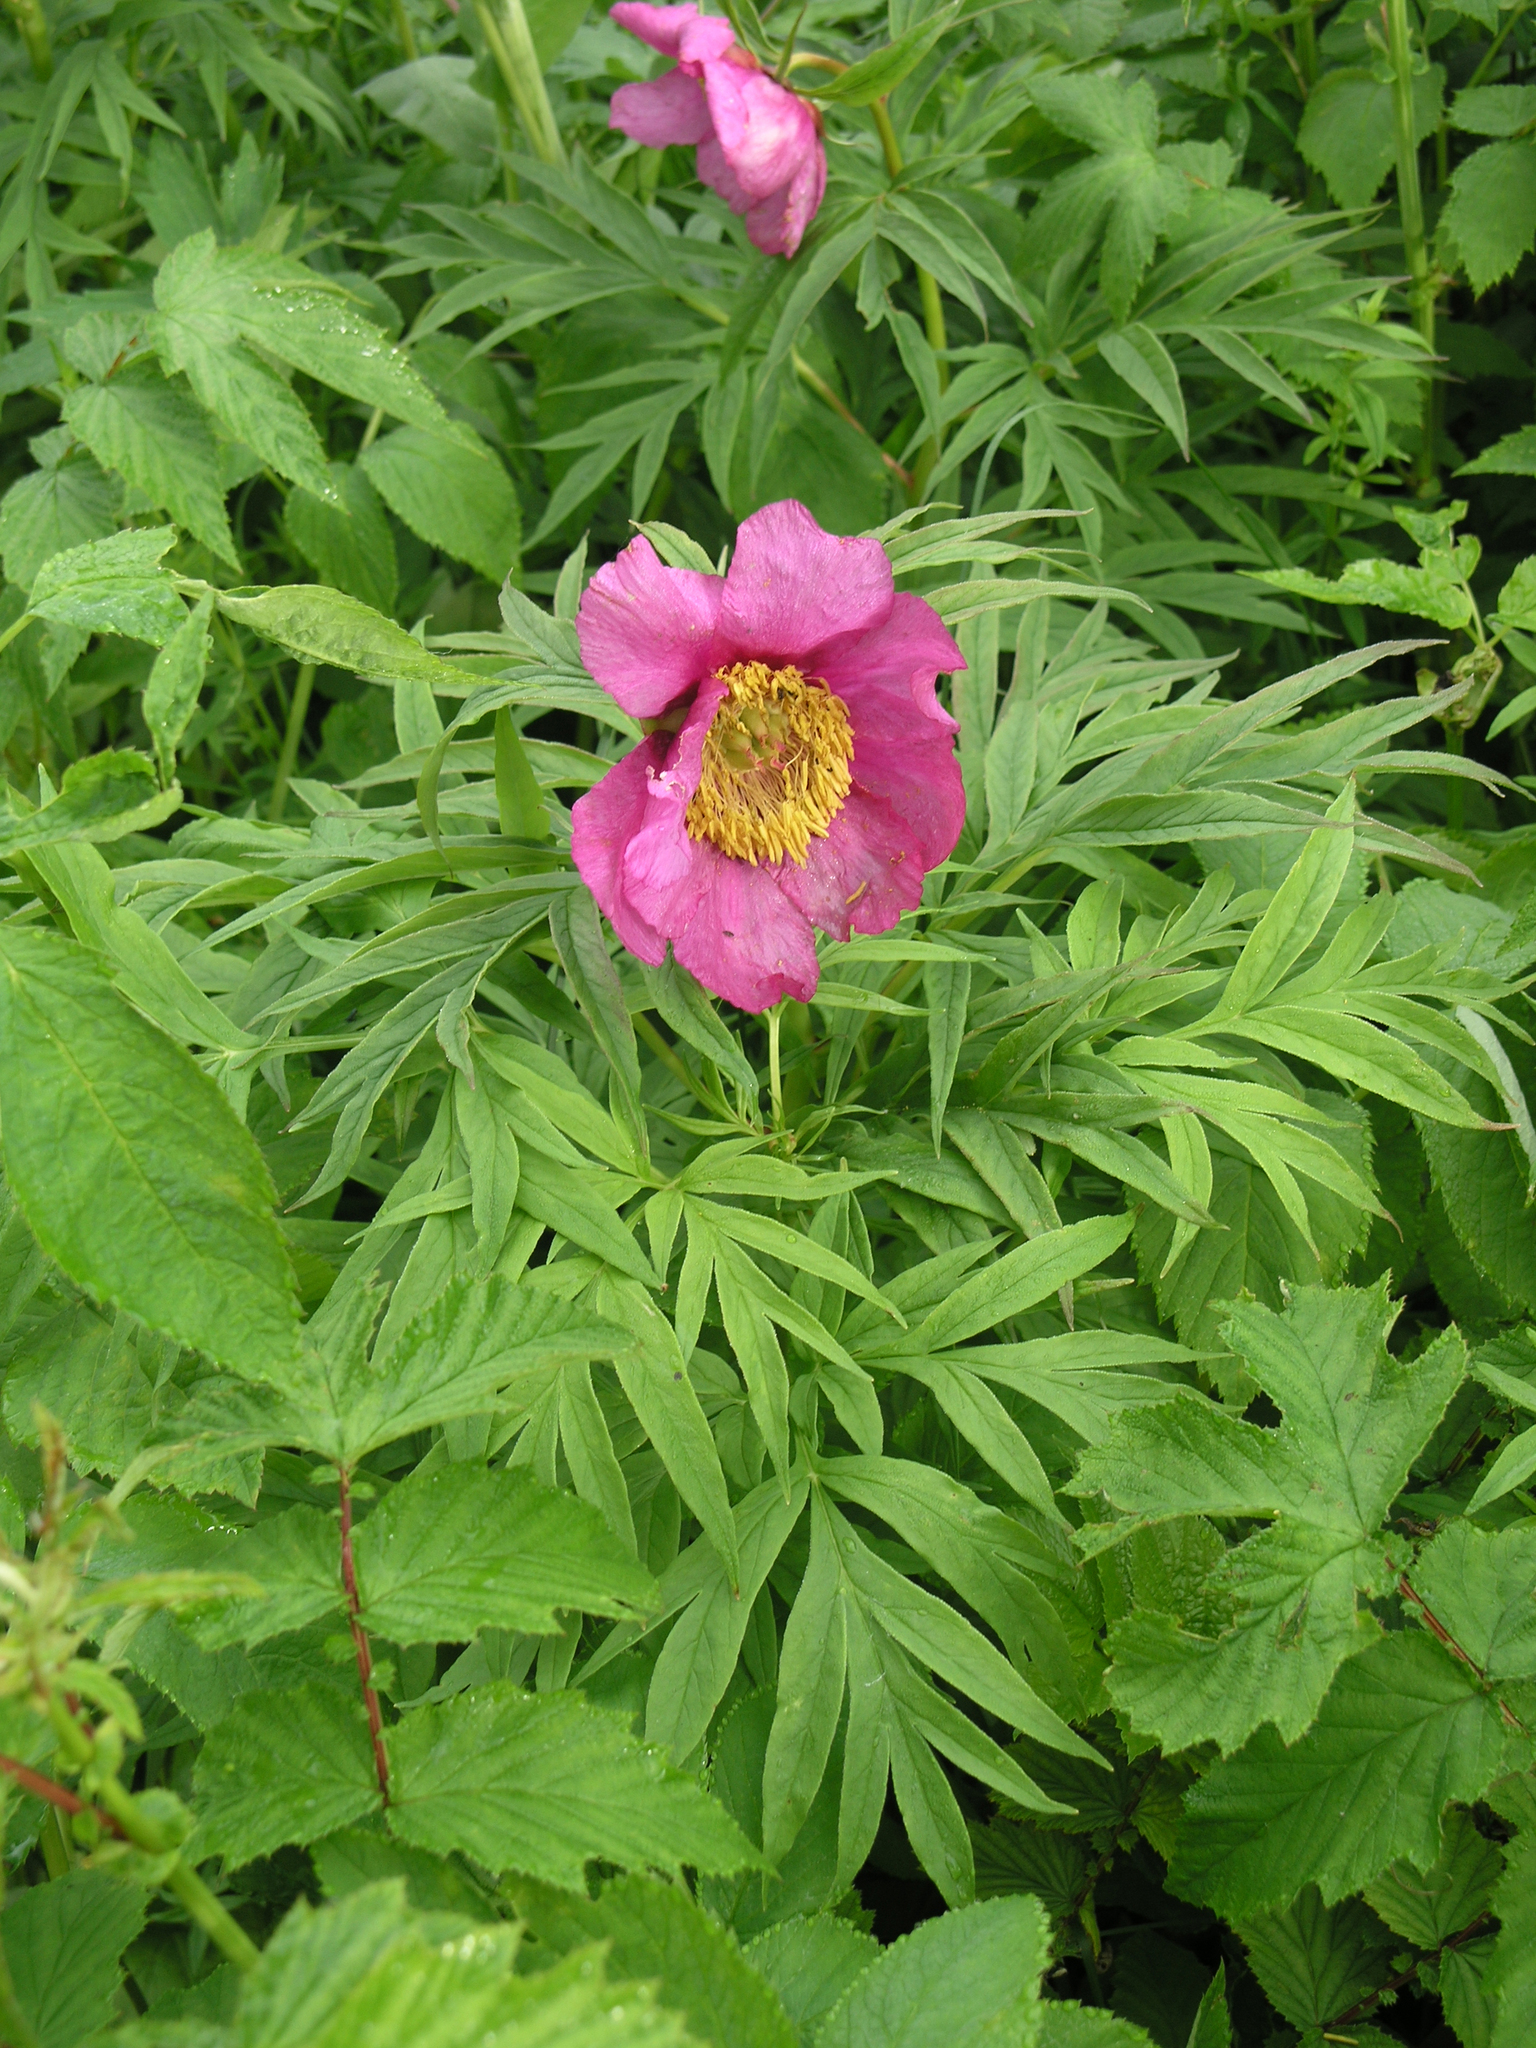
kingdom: Plantae
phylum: Tracheophyta
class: Magnoliopsida
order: Saxifragales
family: Paeoniaceae
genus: Paeonia
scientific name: Paeonia anomala
